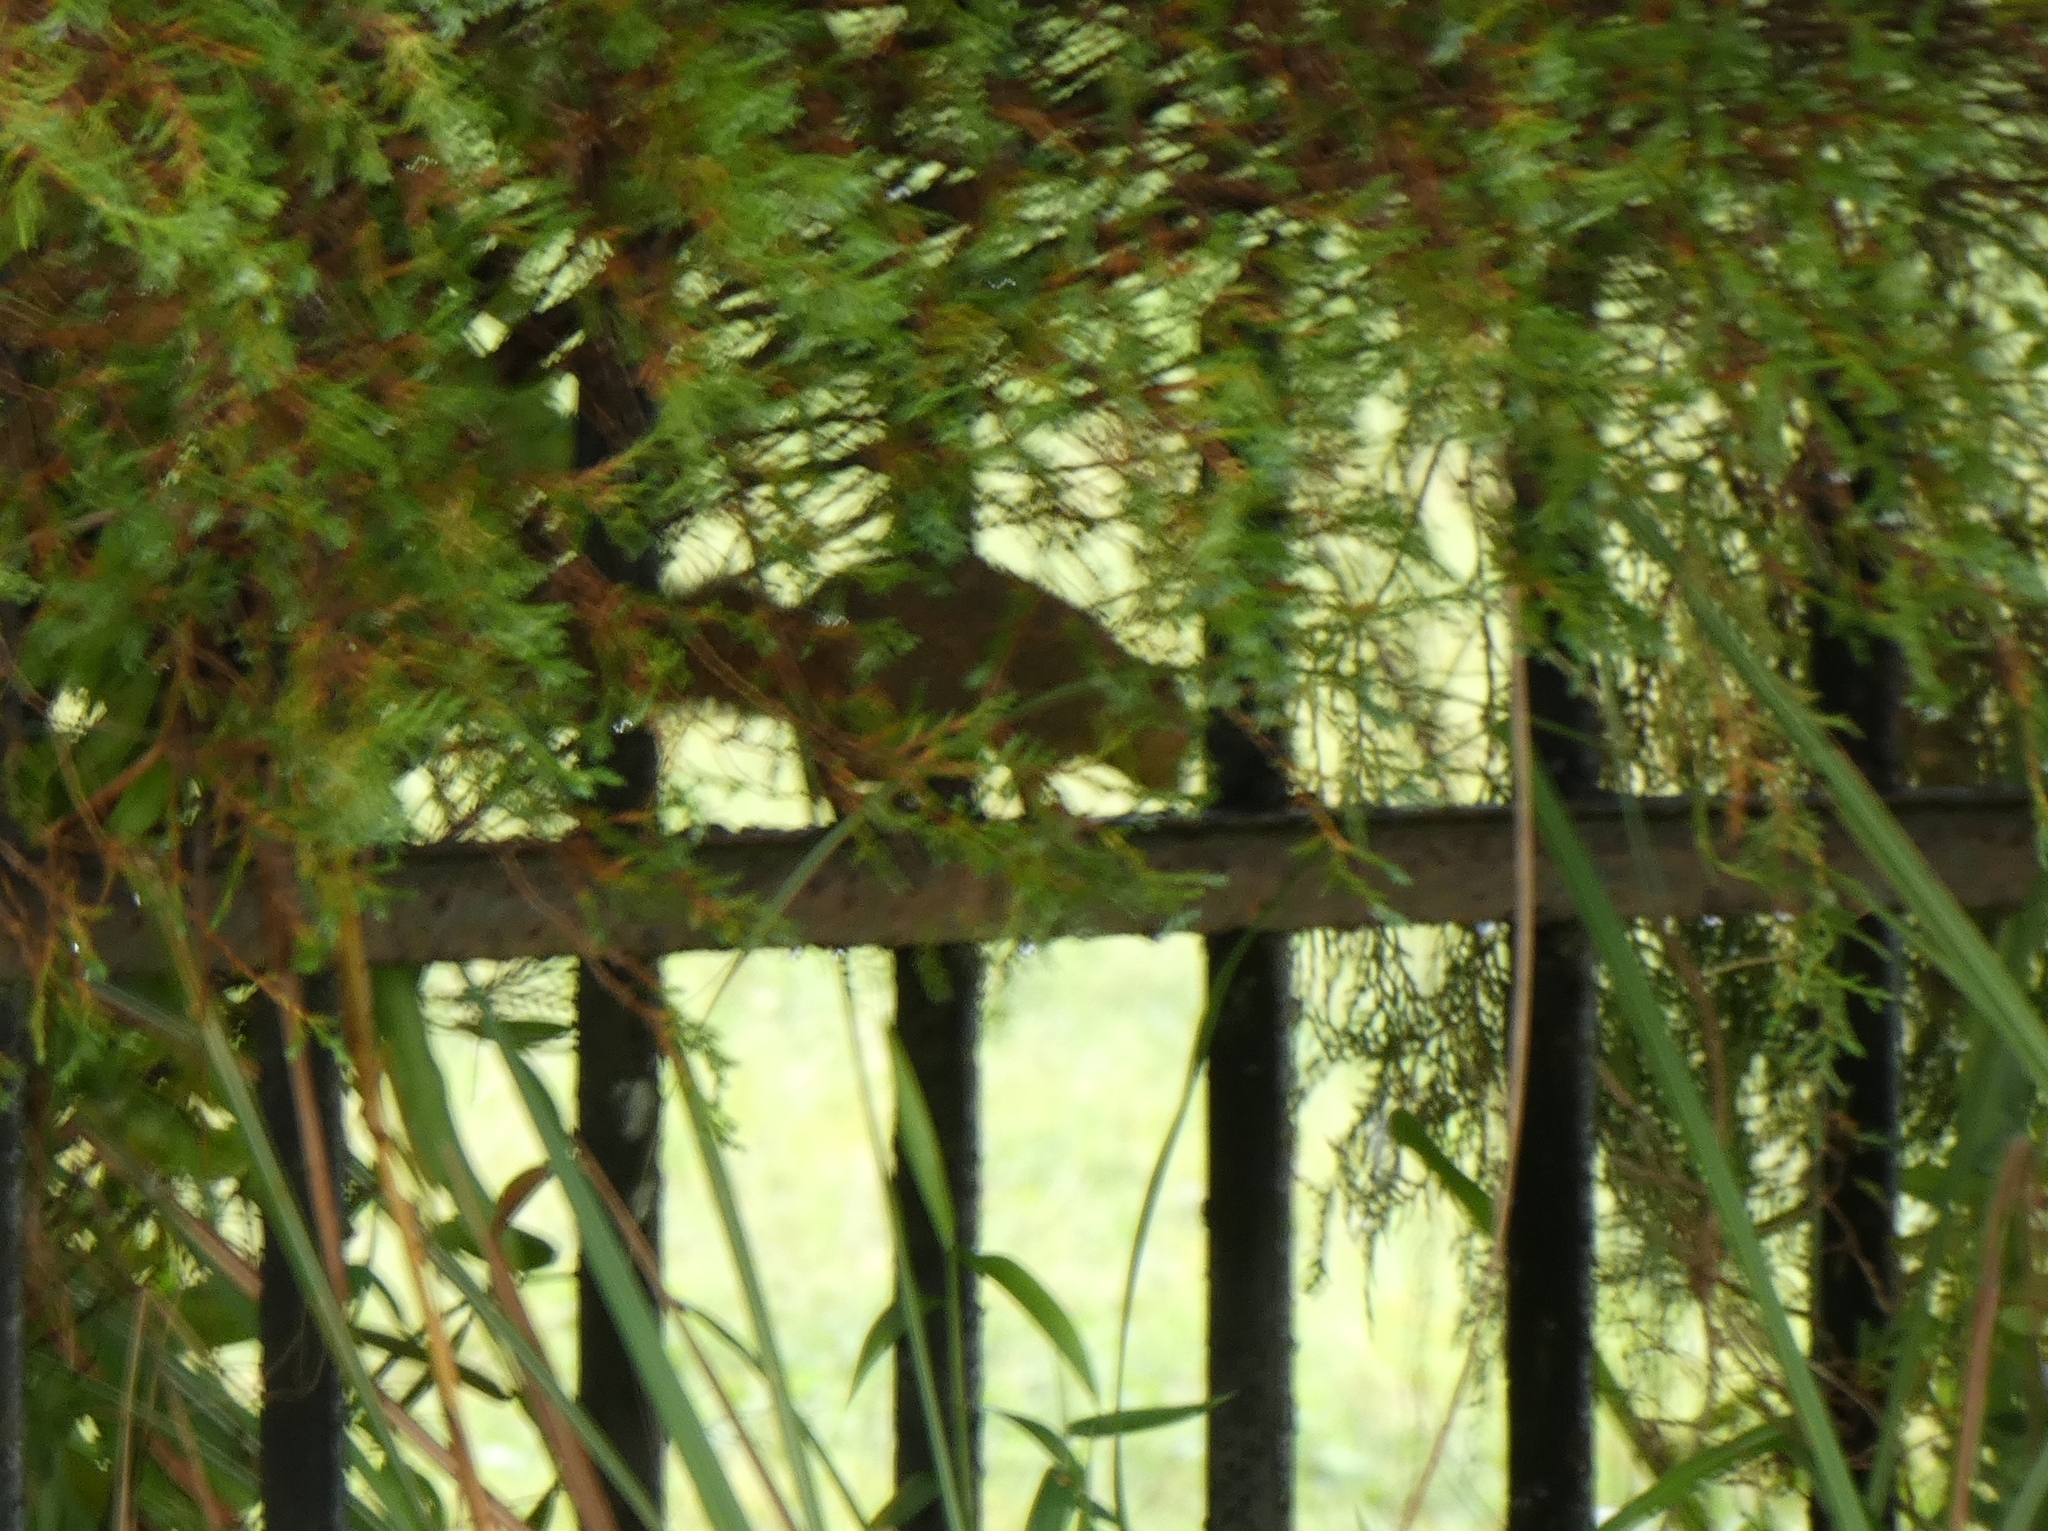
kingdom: Animalia
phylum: Chordata
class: Mammalia
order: Rodentia
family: Sciuridae
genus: Callosciurus
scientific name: Callosciurus notatus
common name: Plantain squirrel
